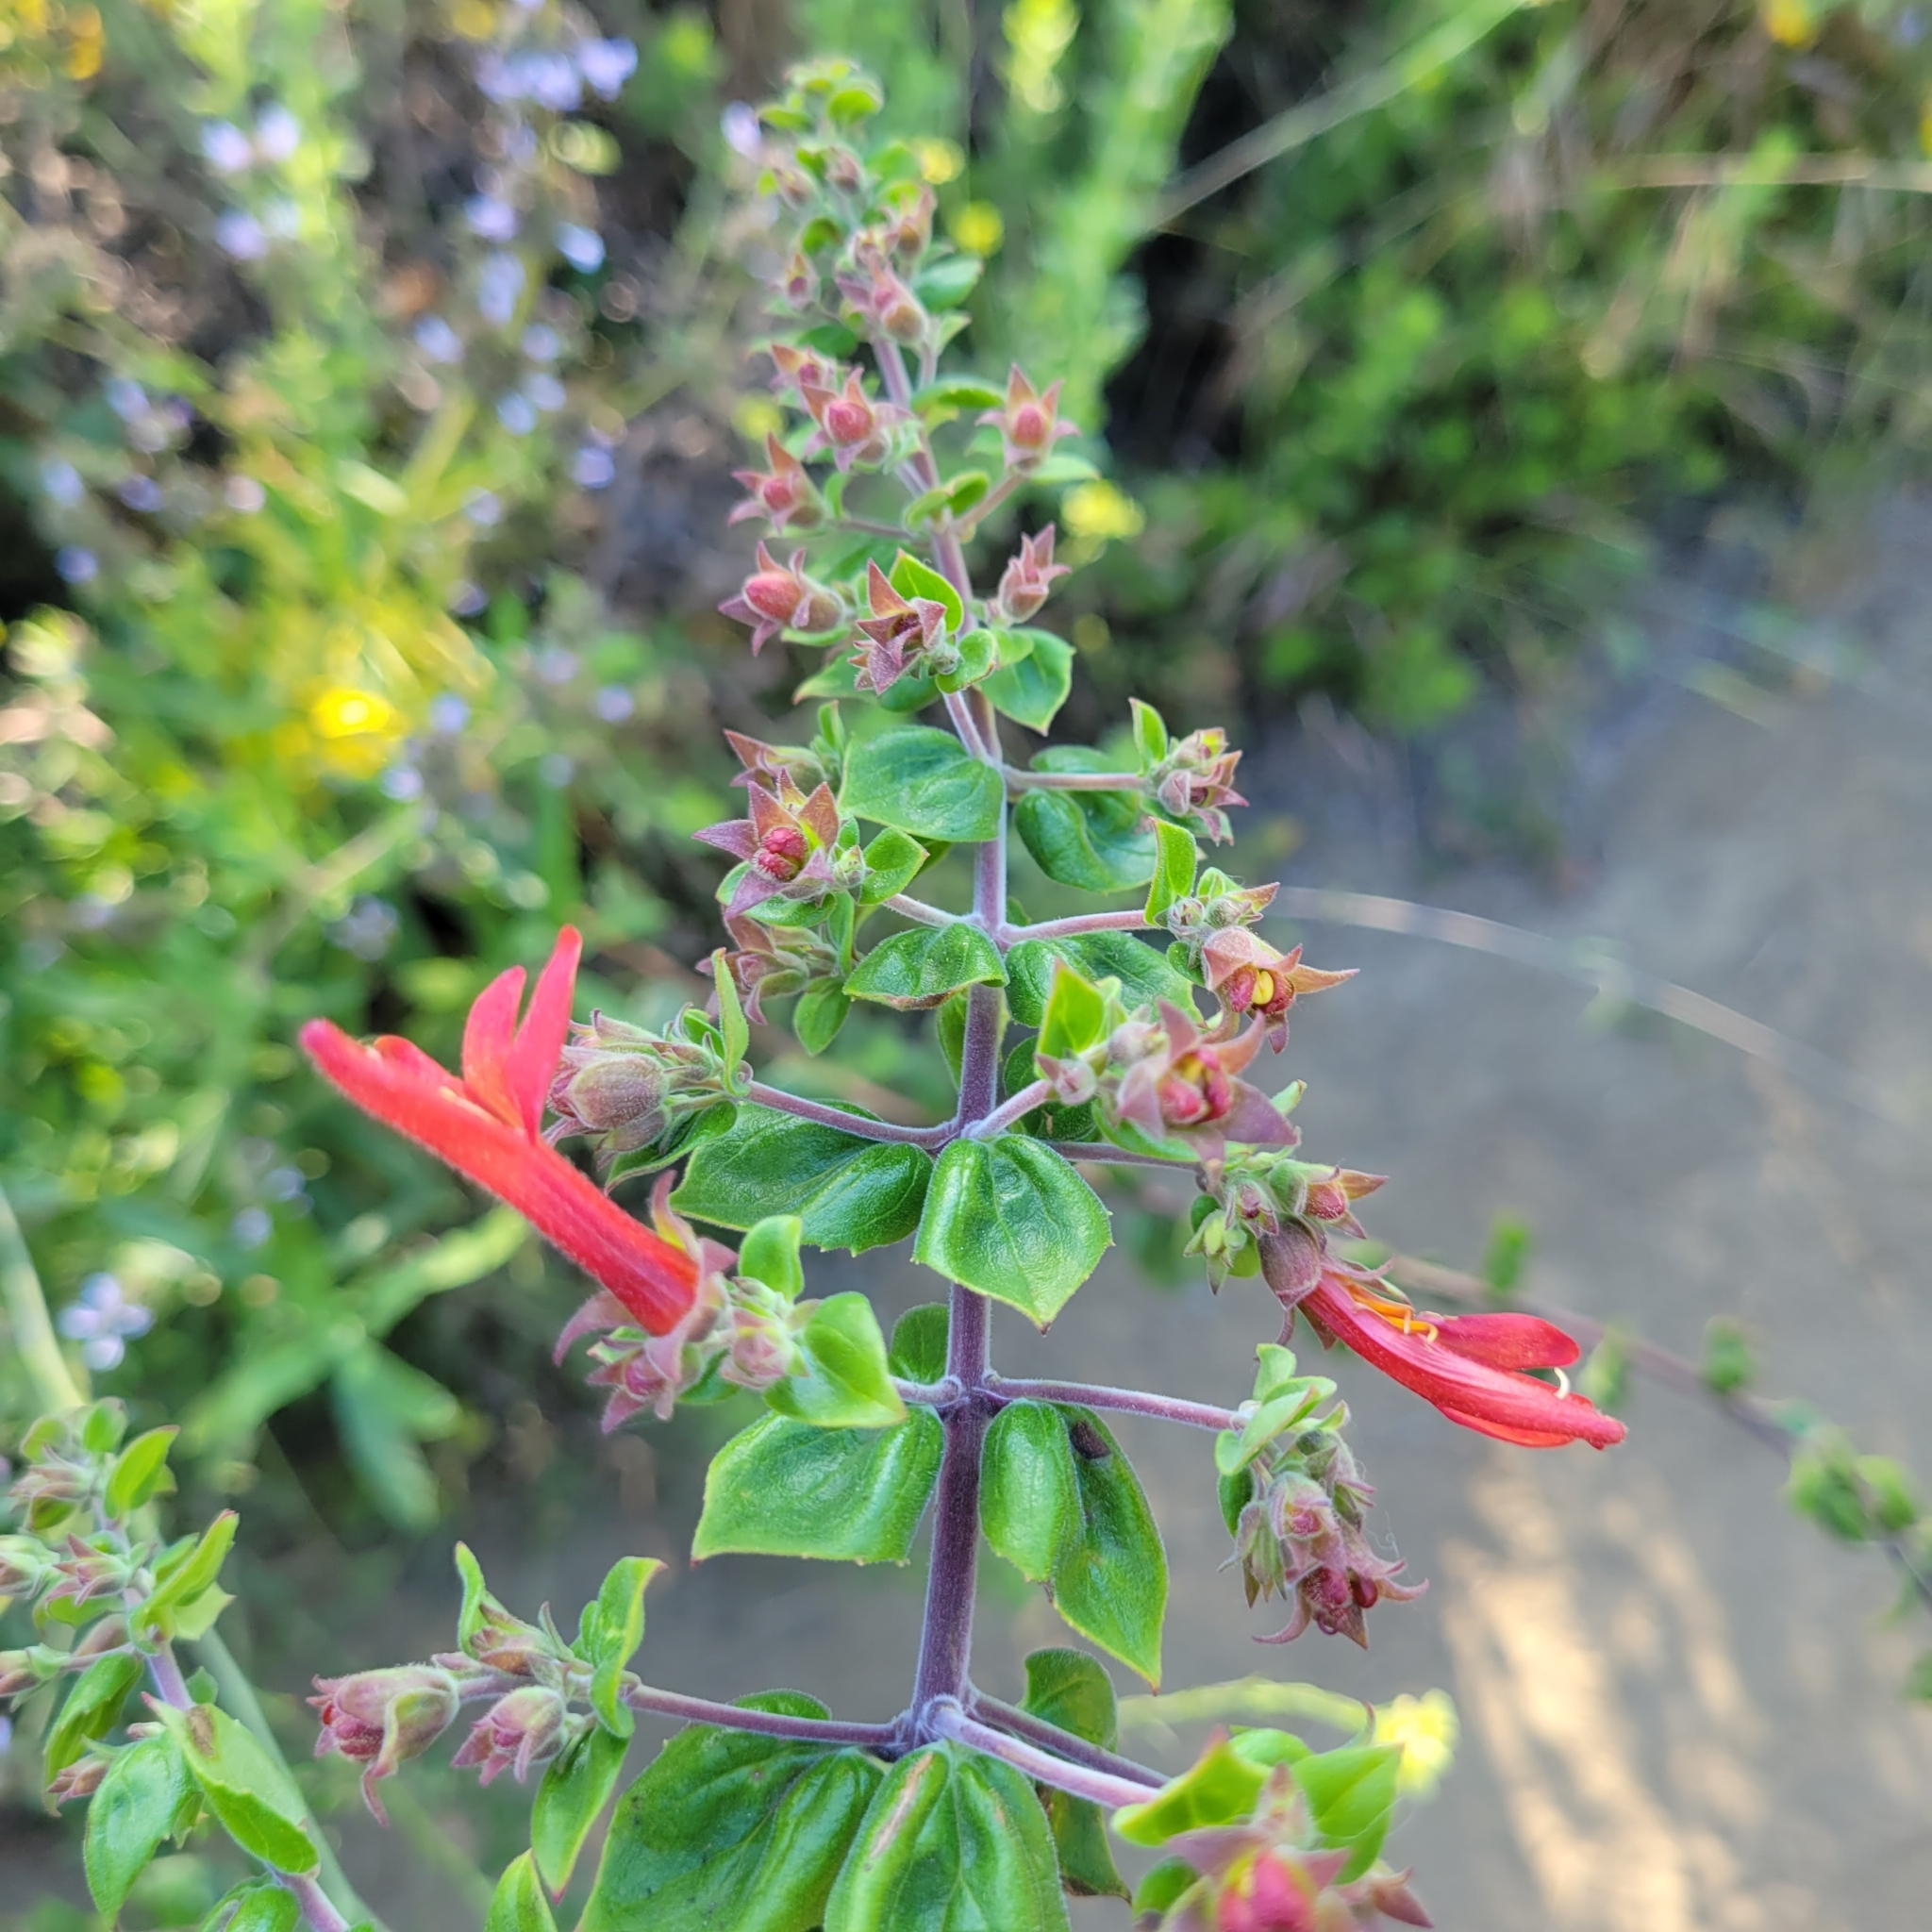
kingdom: Plantae
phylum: Tracheophyta
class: Magnoliopsida
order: Lamiales
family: Plantaginaceae
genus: Keckiella
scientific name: Keckiella cordifolia
